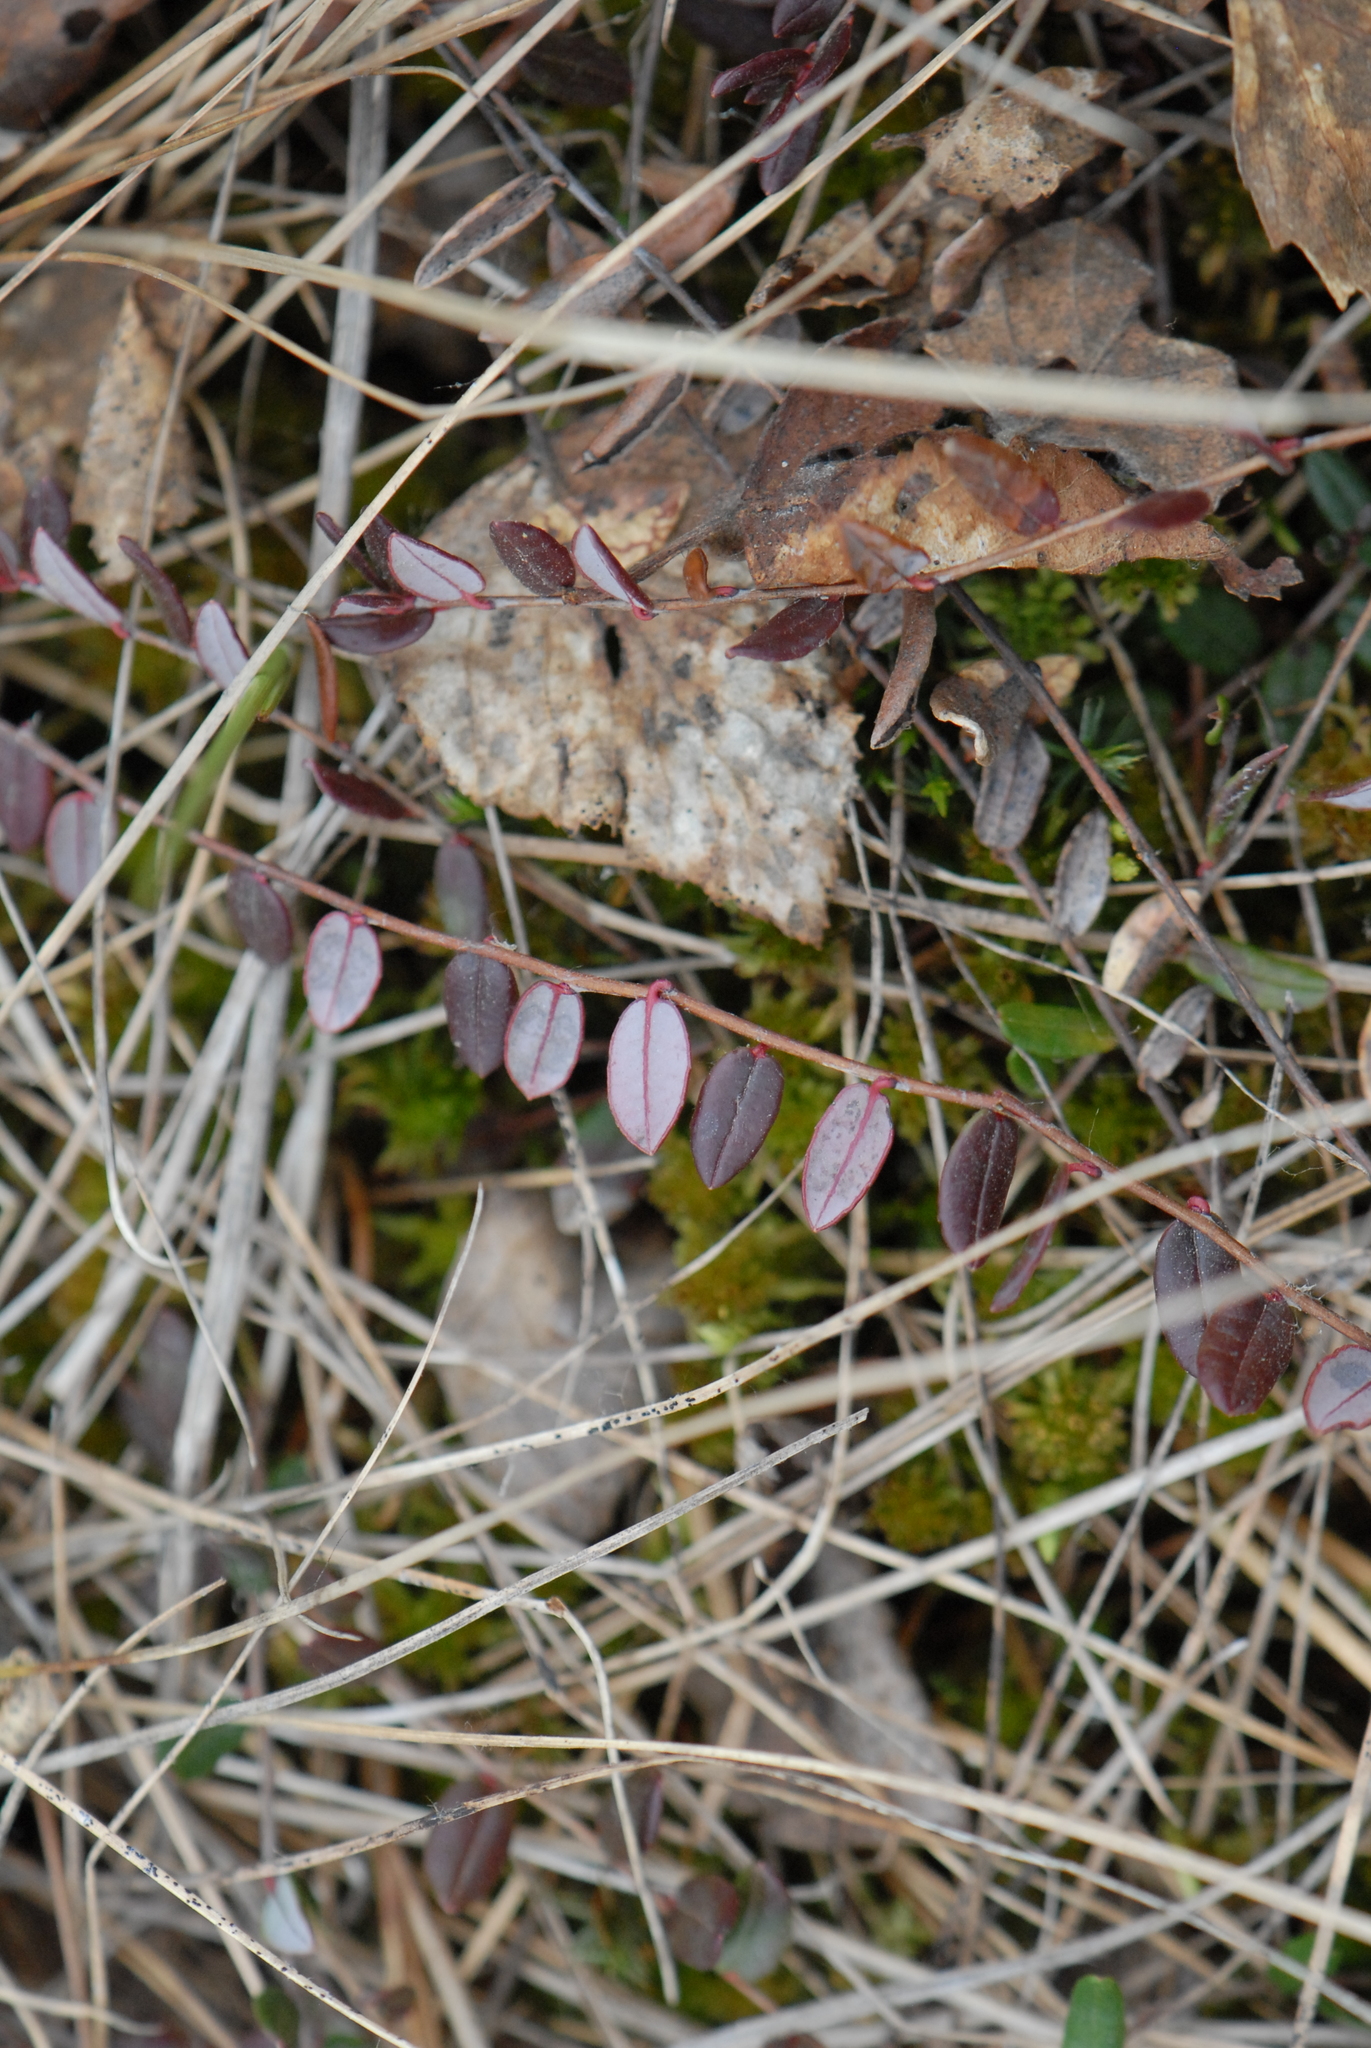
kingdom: Plantae
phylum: Tracheophyta
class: Magnoliopsida
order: Ericales
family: Ericaceae
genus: Vaccinium
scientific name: Vaccinium oxycoccos
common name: Cranberry
